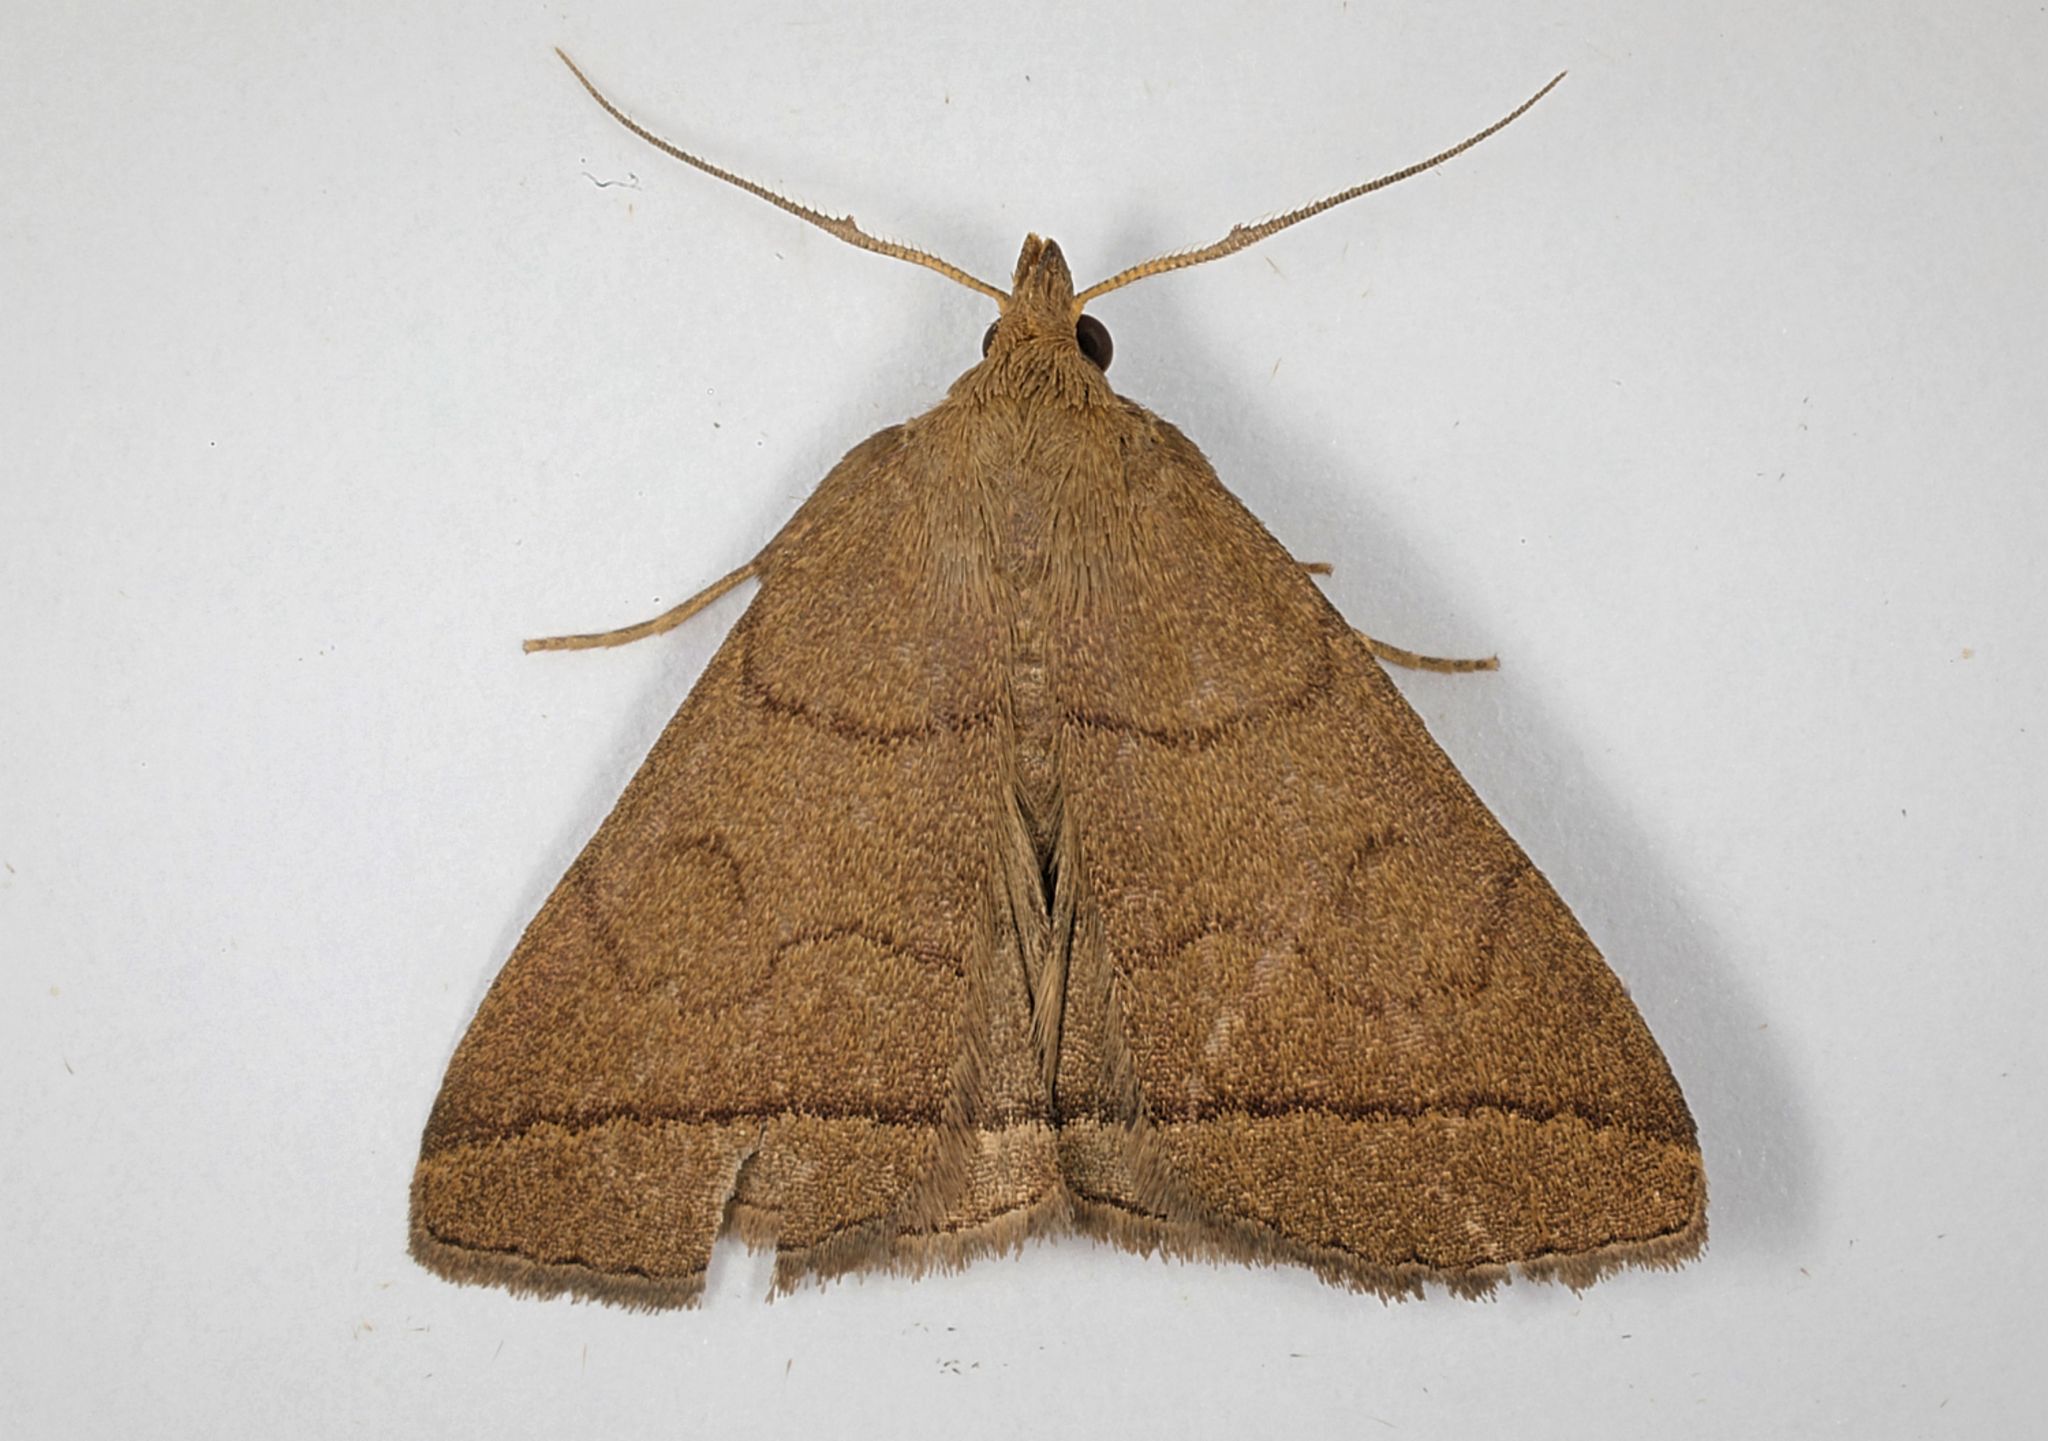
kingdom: Animalia
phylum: Arthropoda
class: Insecta
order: Lepidoptera
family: Erebidae
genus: Herminia
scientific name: Herminia tarsipennalis
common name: Fan-foot
